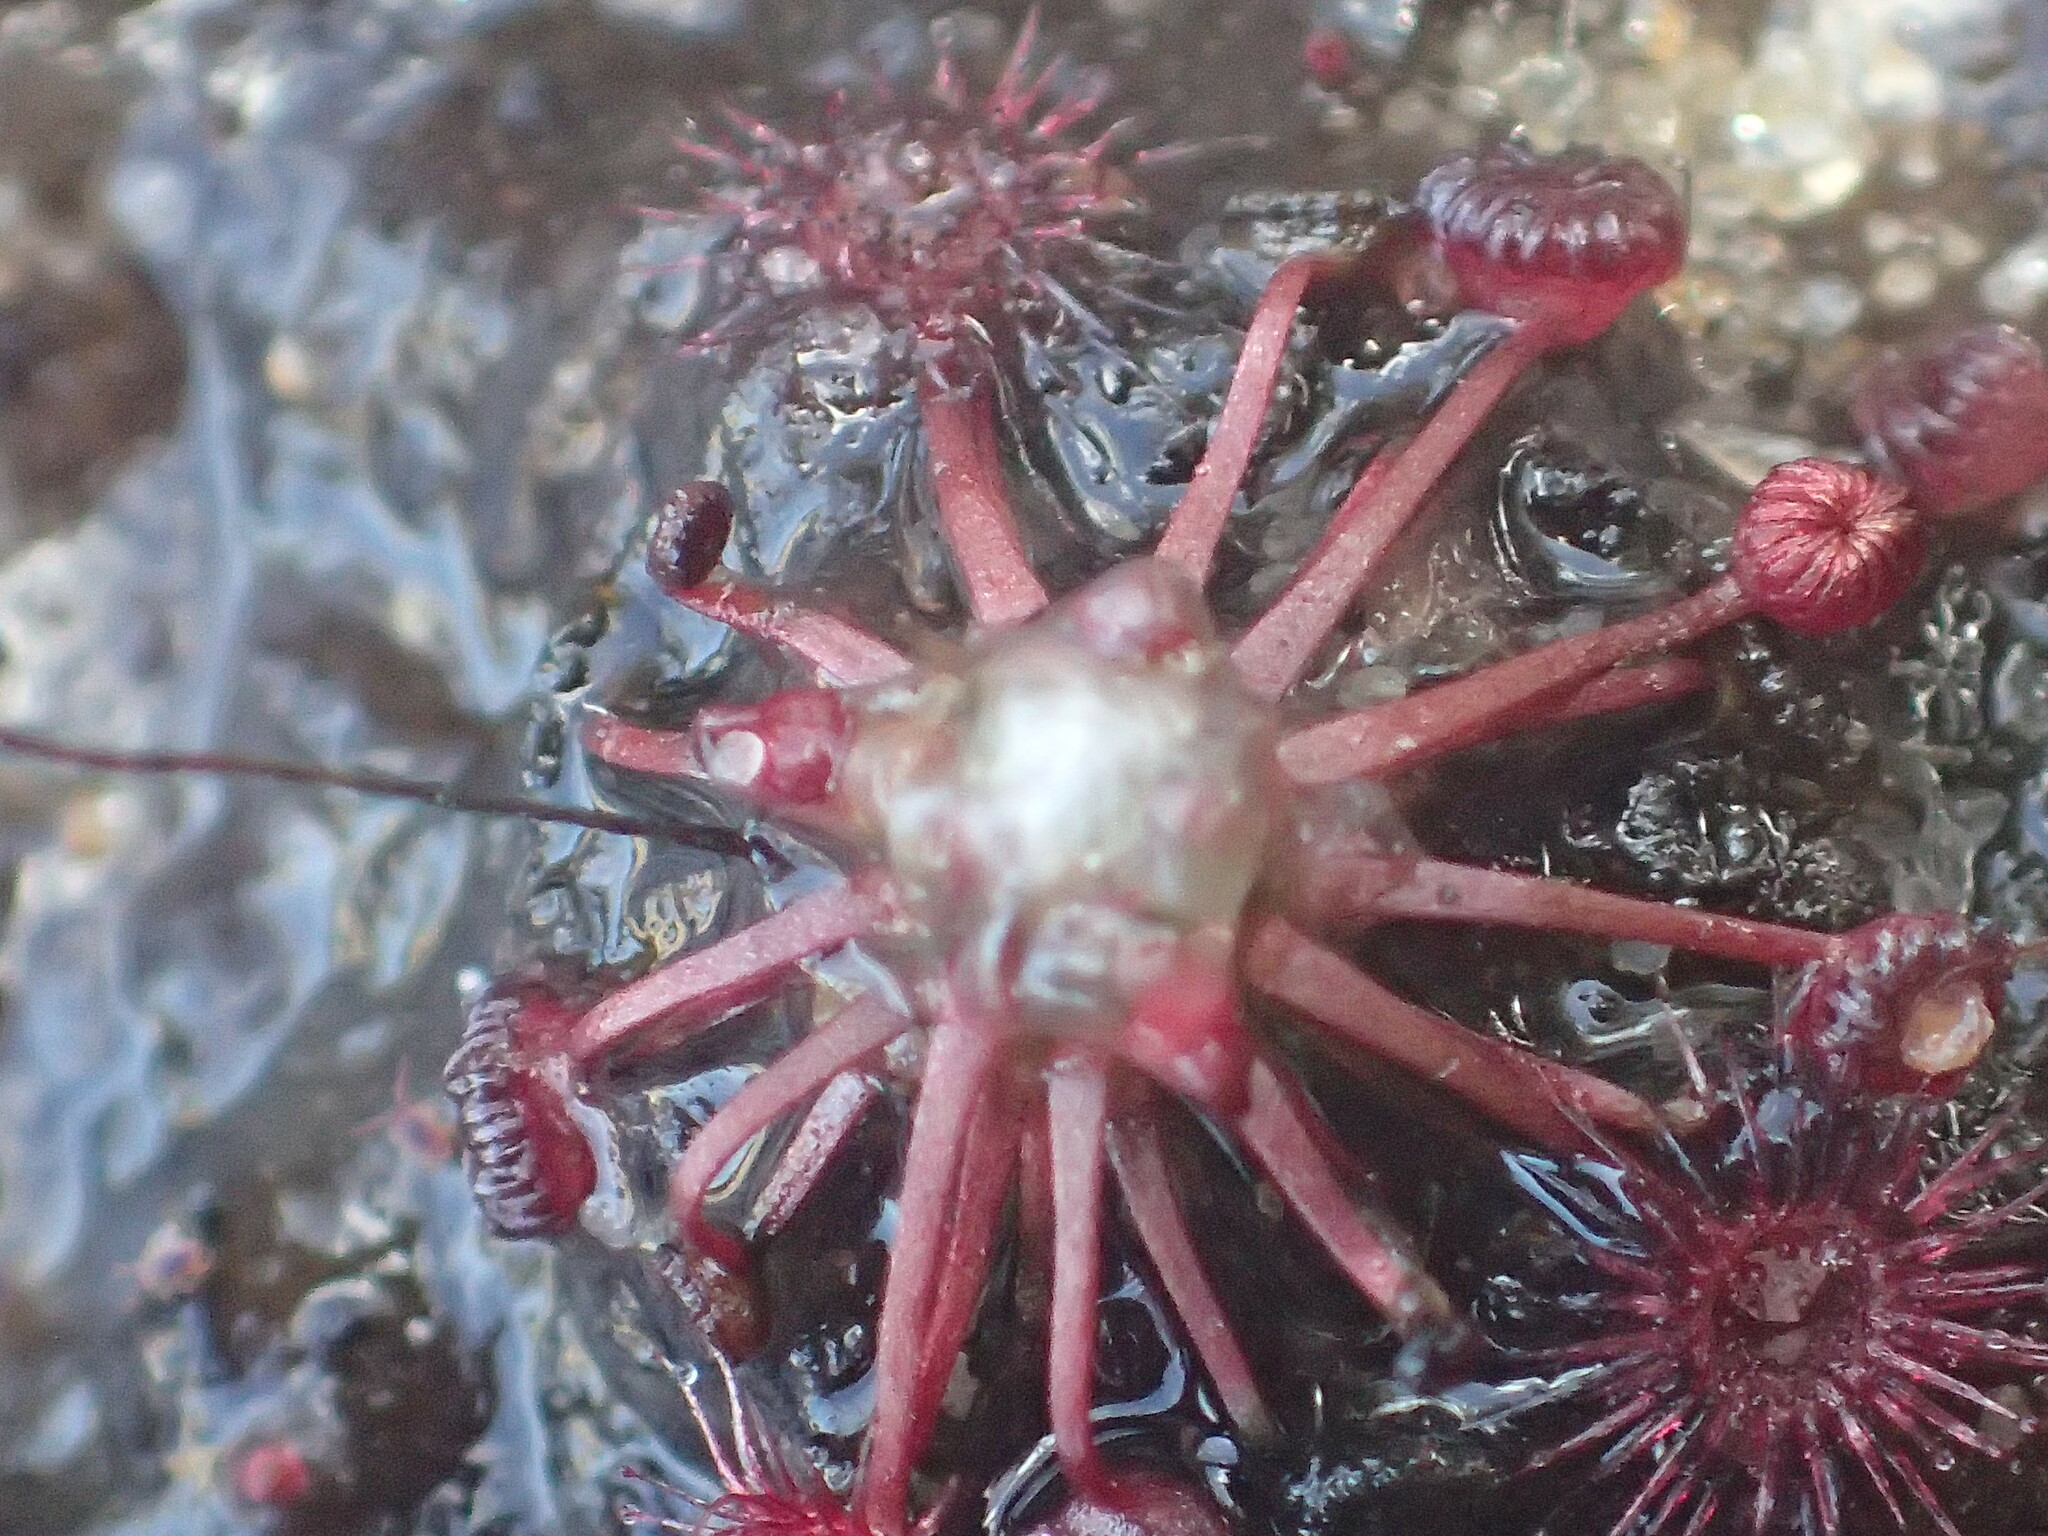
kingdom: Plantae
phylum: Tracheophyta
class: Magnoliopsida
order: Caryophyllales
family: Droseraceae
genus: Drosera
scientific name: Drosera pygmaea
